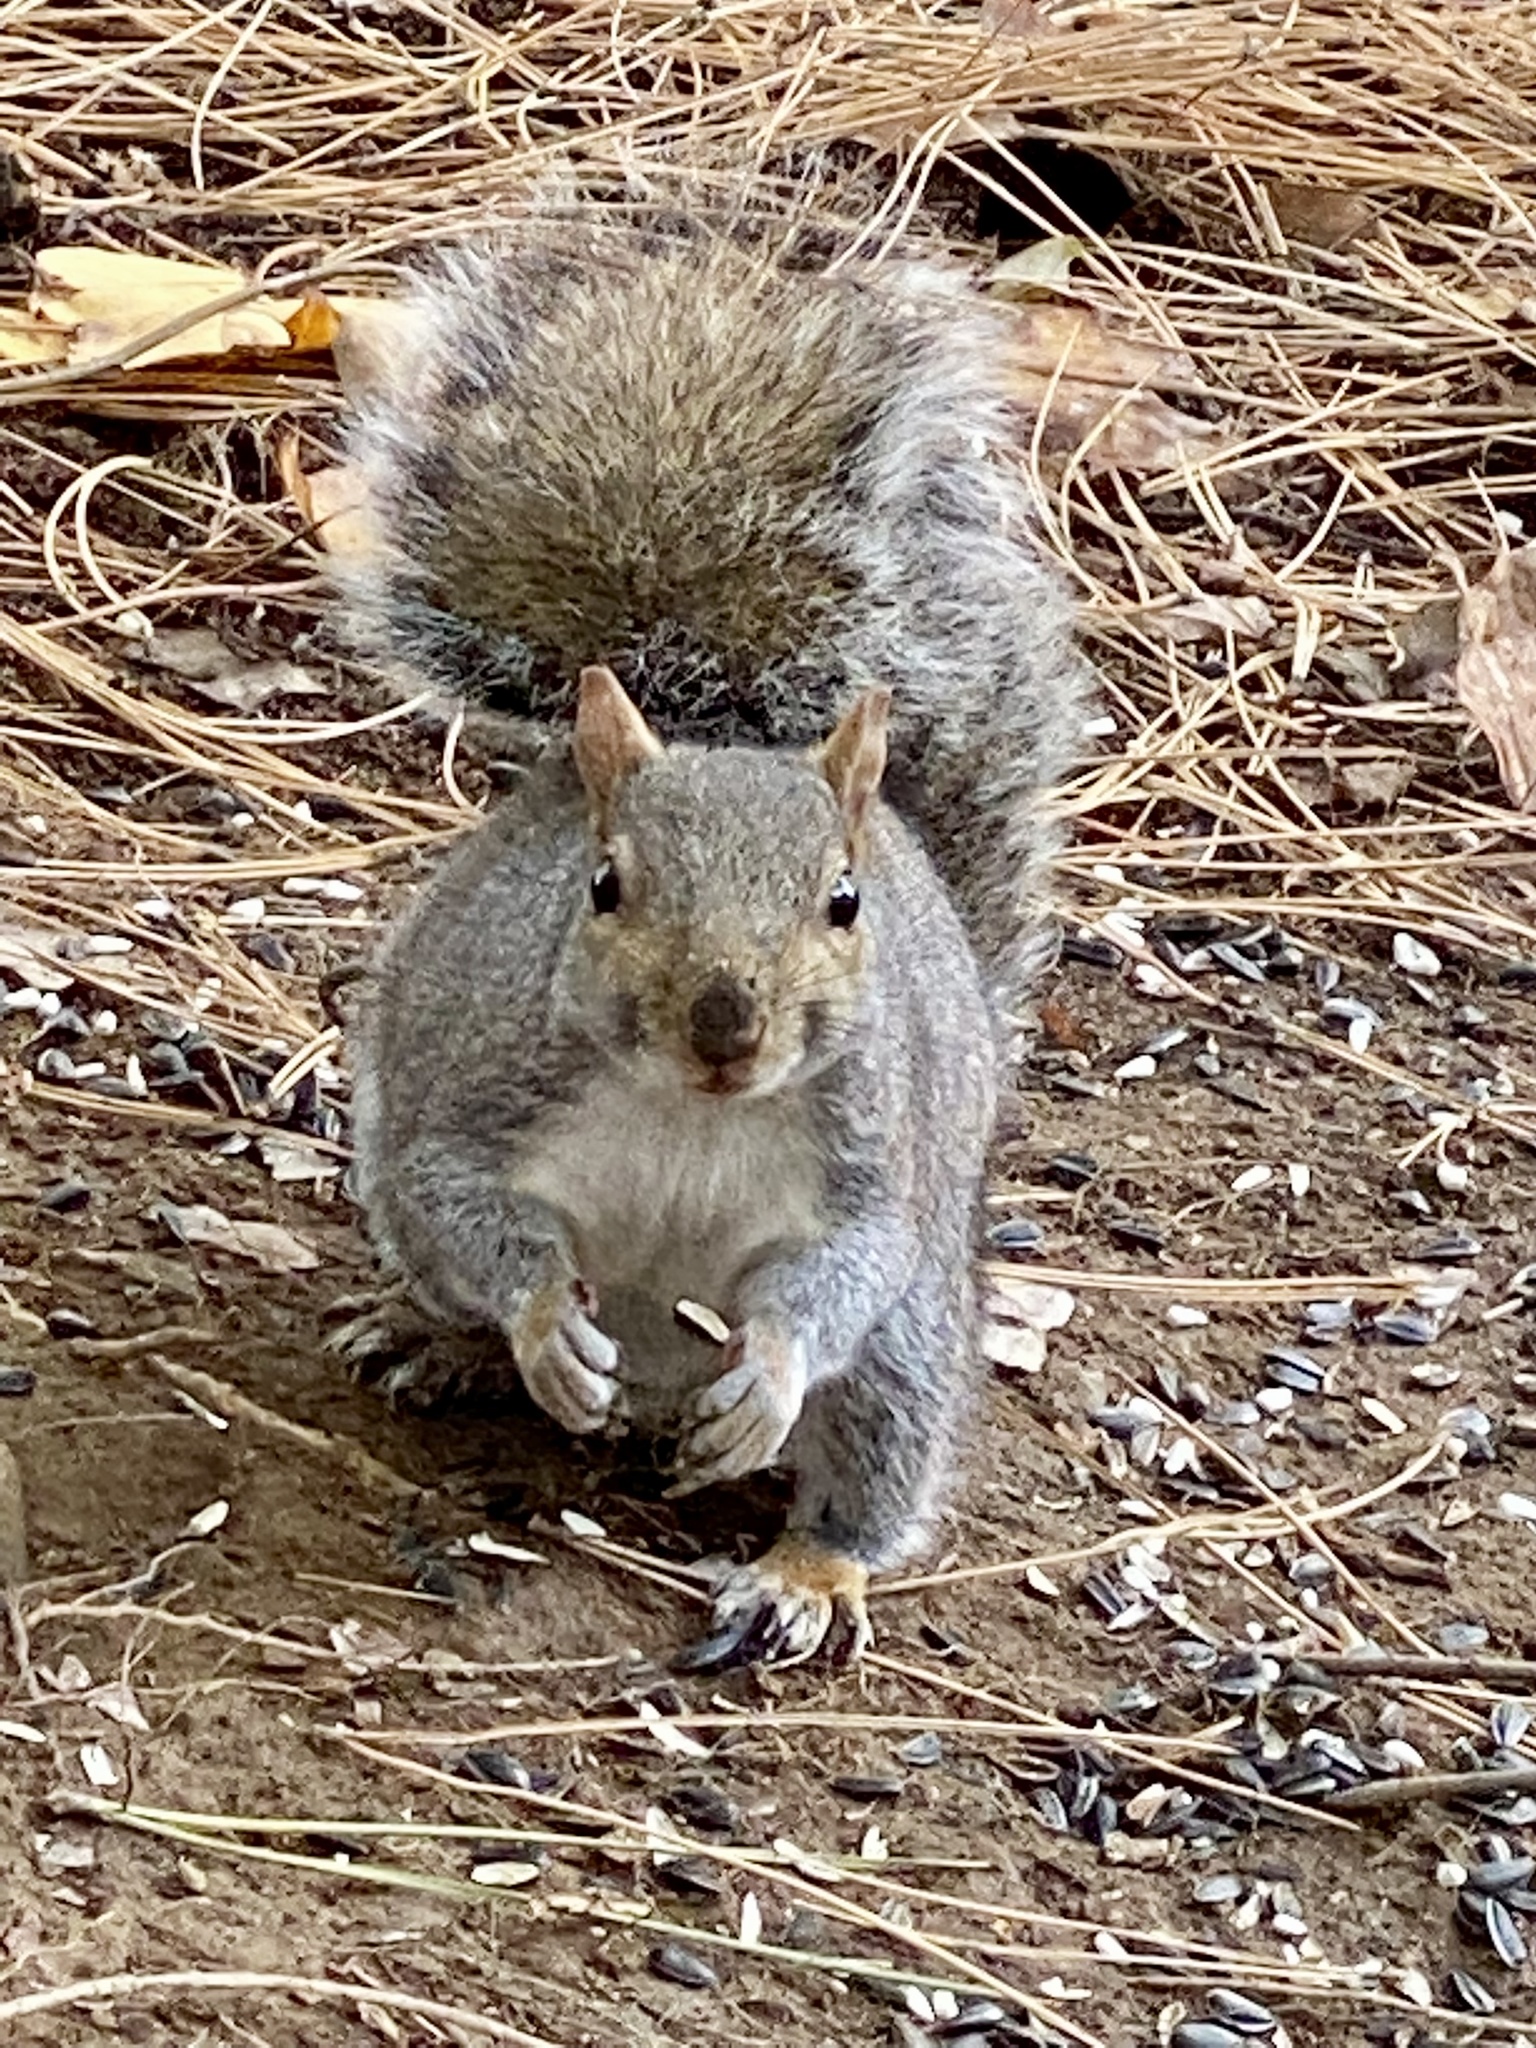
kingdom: Animalia
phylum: Chordata
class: Mammalia
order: Rodentia
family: Sciuridae
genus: Sciurus
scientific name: Sciurus carolinensis
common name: Eastern gray squirrel
